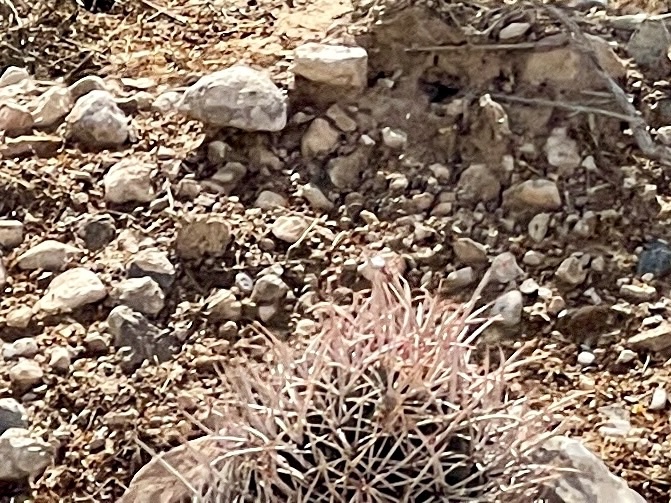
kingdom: Plantae
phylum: Tracheophyta
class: Magnoliopsida
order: Caryophyllales
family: Cactaceae
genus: Echinocactus
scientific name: Echinocactus polycephalus
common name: Cottontop cactus
